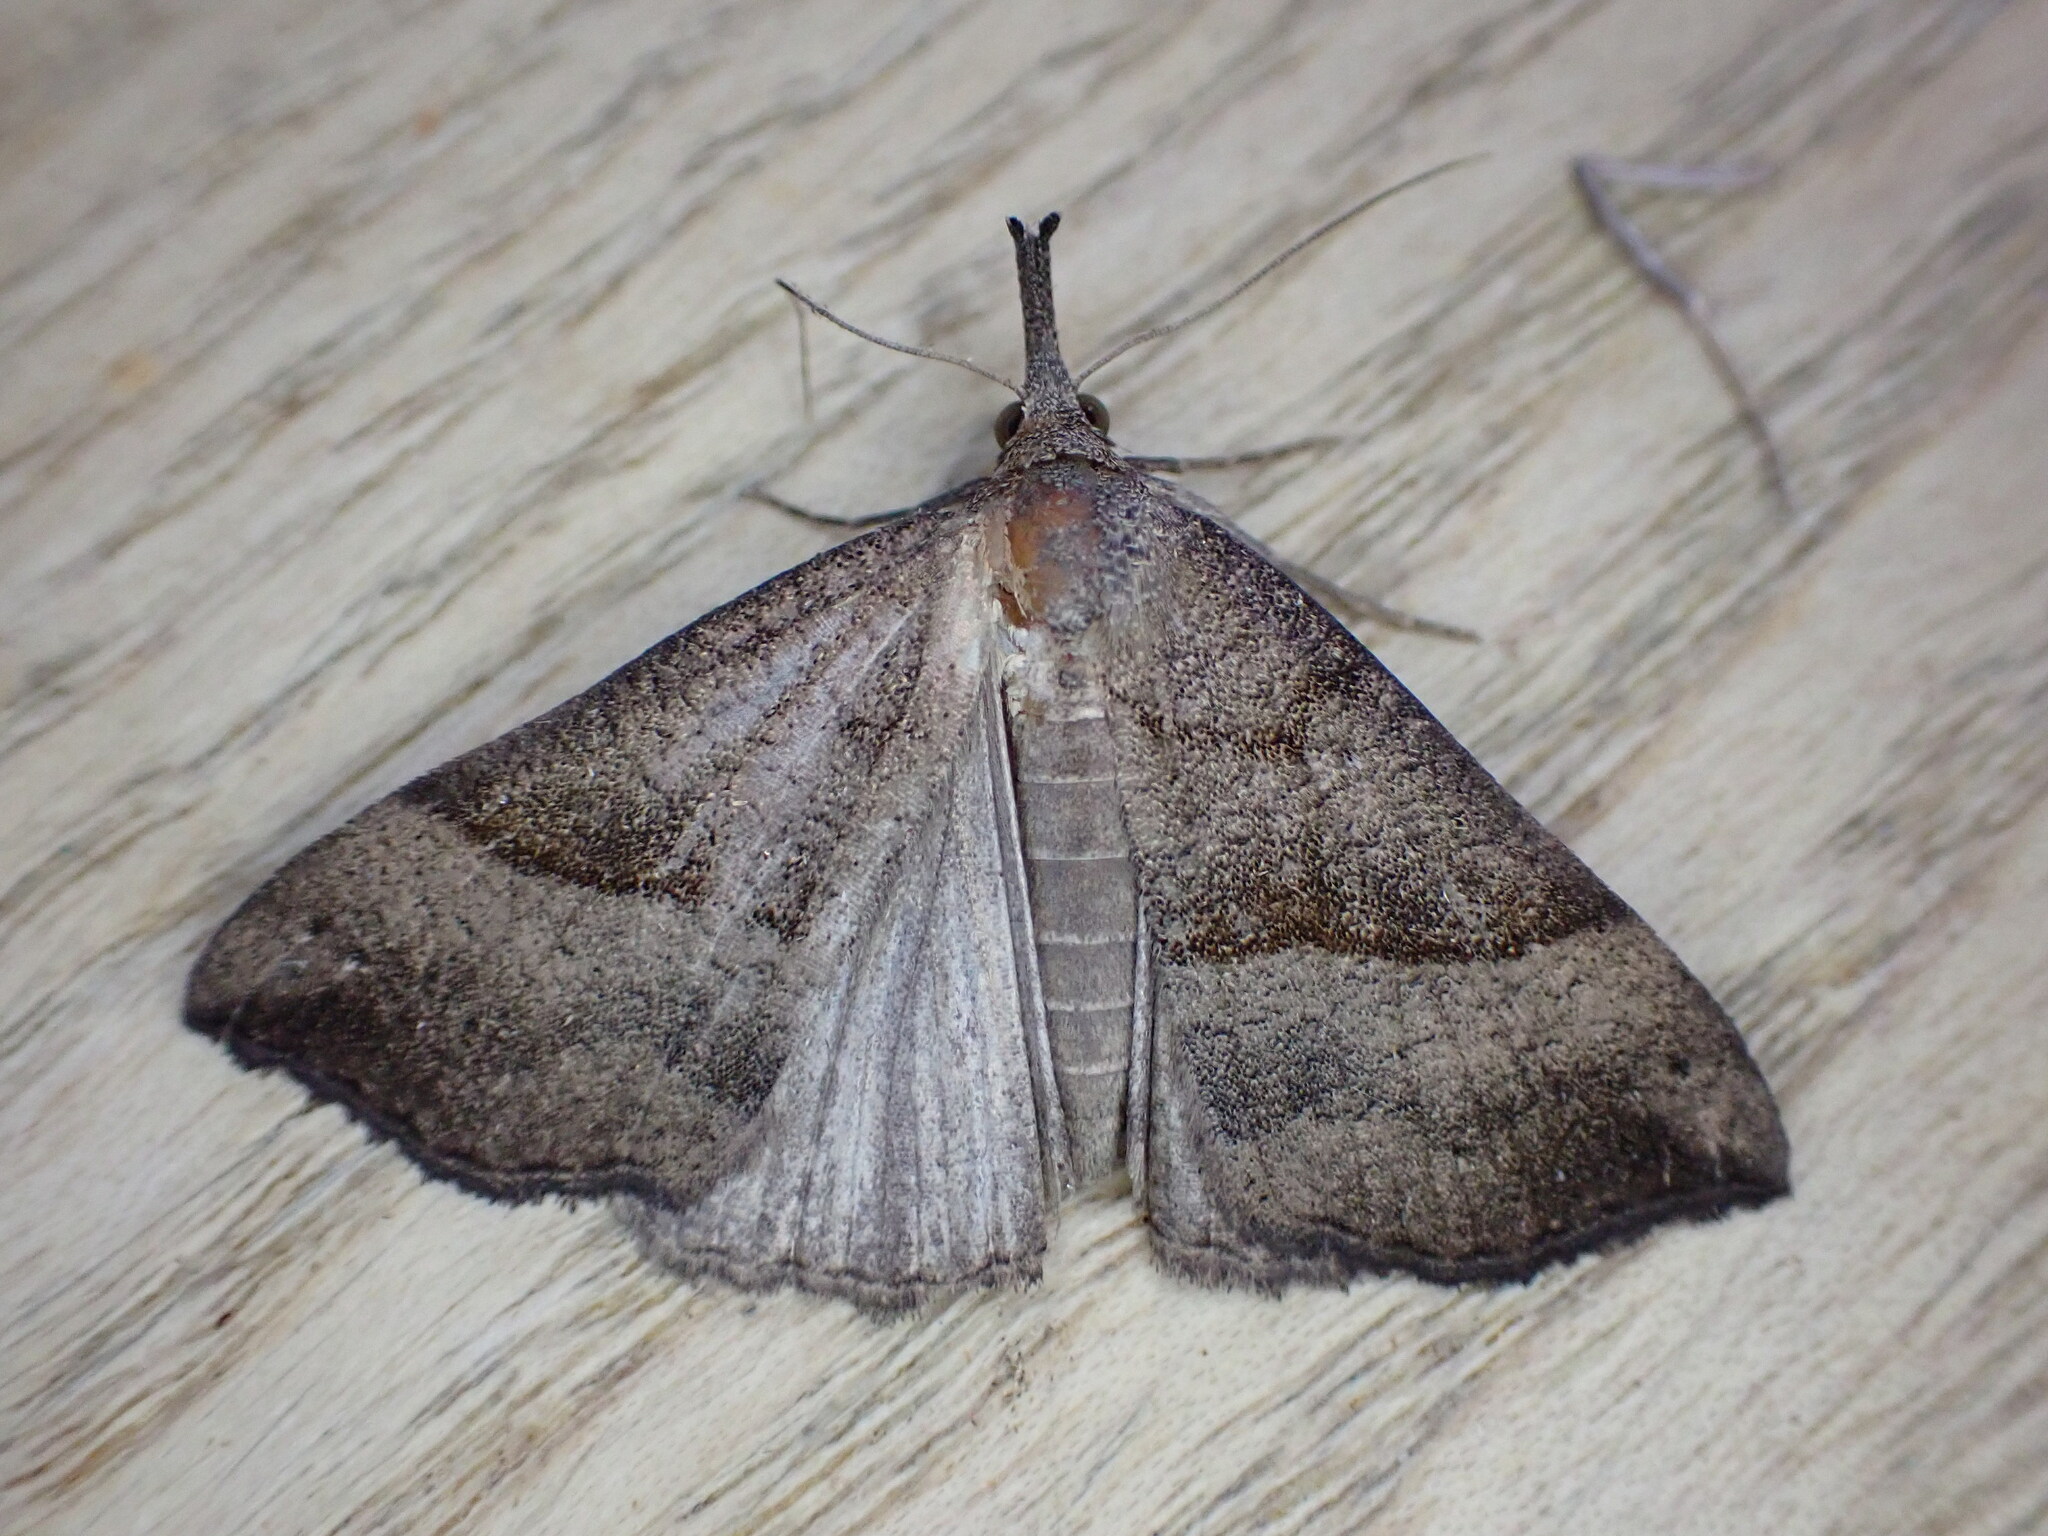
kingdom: Animalia
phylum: Arthropoda
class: Insecta
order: Lepidoptera
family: Erebidae
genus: Hypena
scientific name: Hypena proboscidalis
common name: Snout
